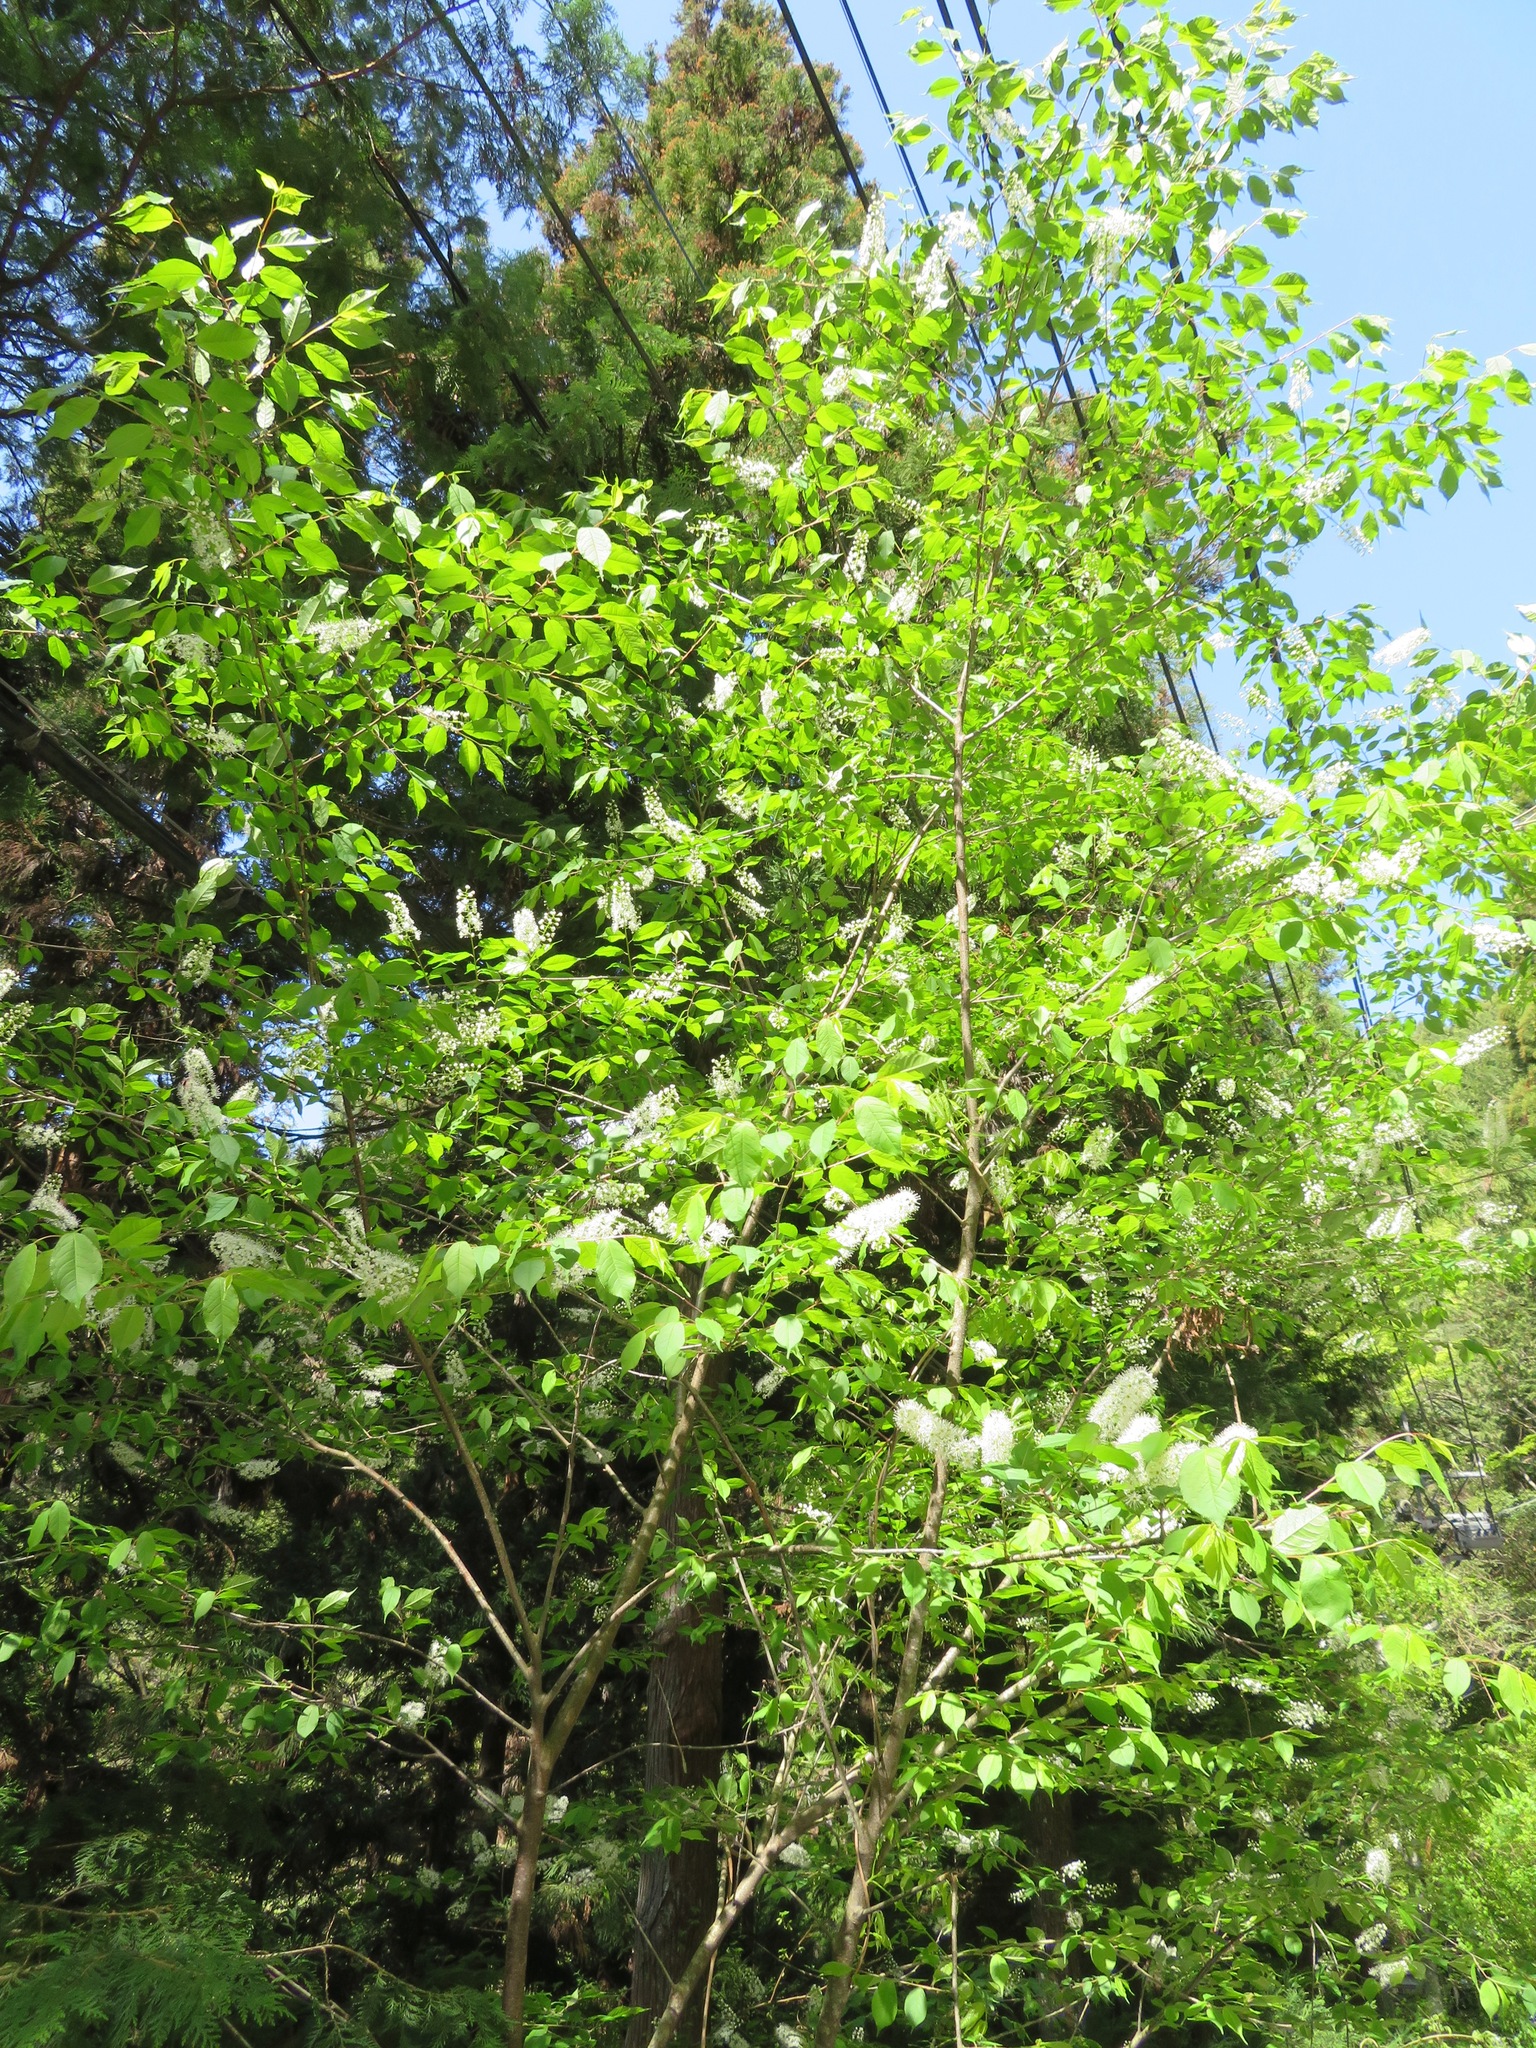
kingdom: Plantae
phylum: Tracheophyta
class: Magnoliopsida
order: Rosales
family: Rosaceae
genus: Prunus
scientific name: Prunus grayana
